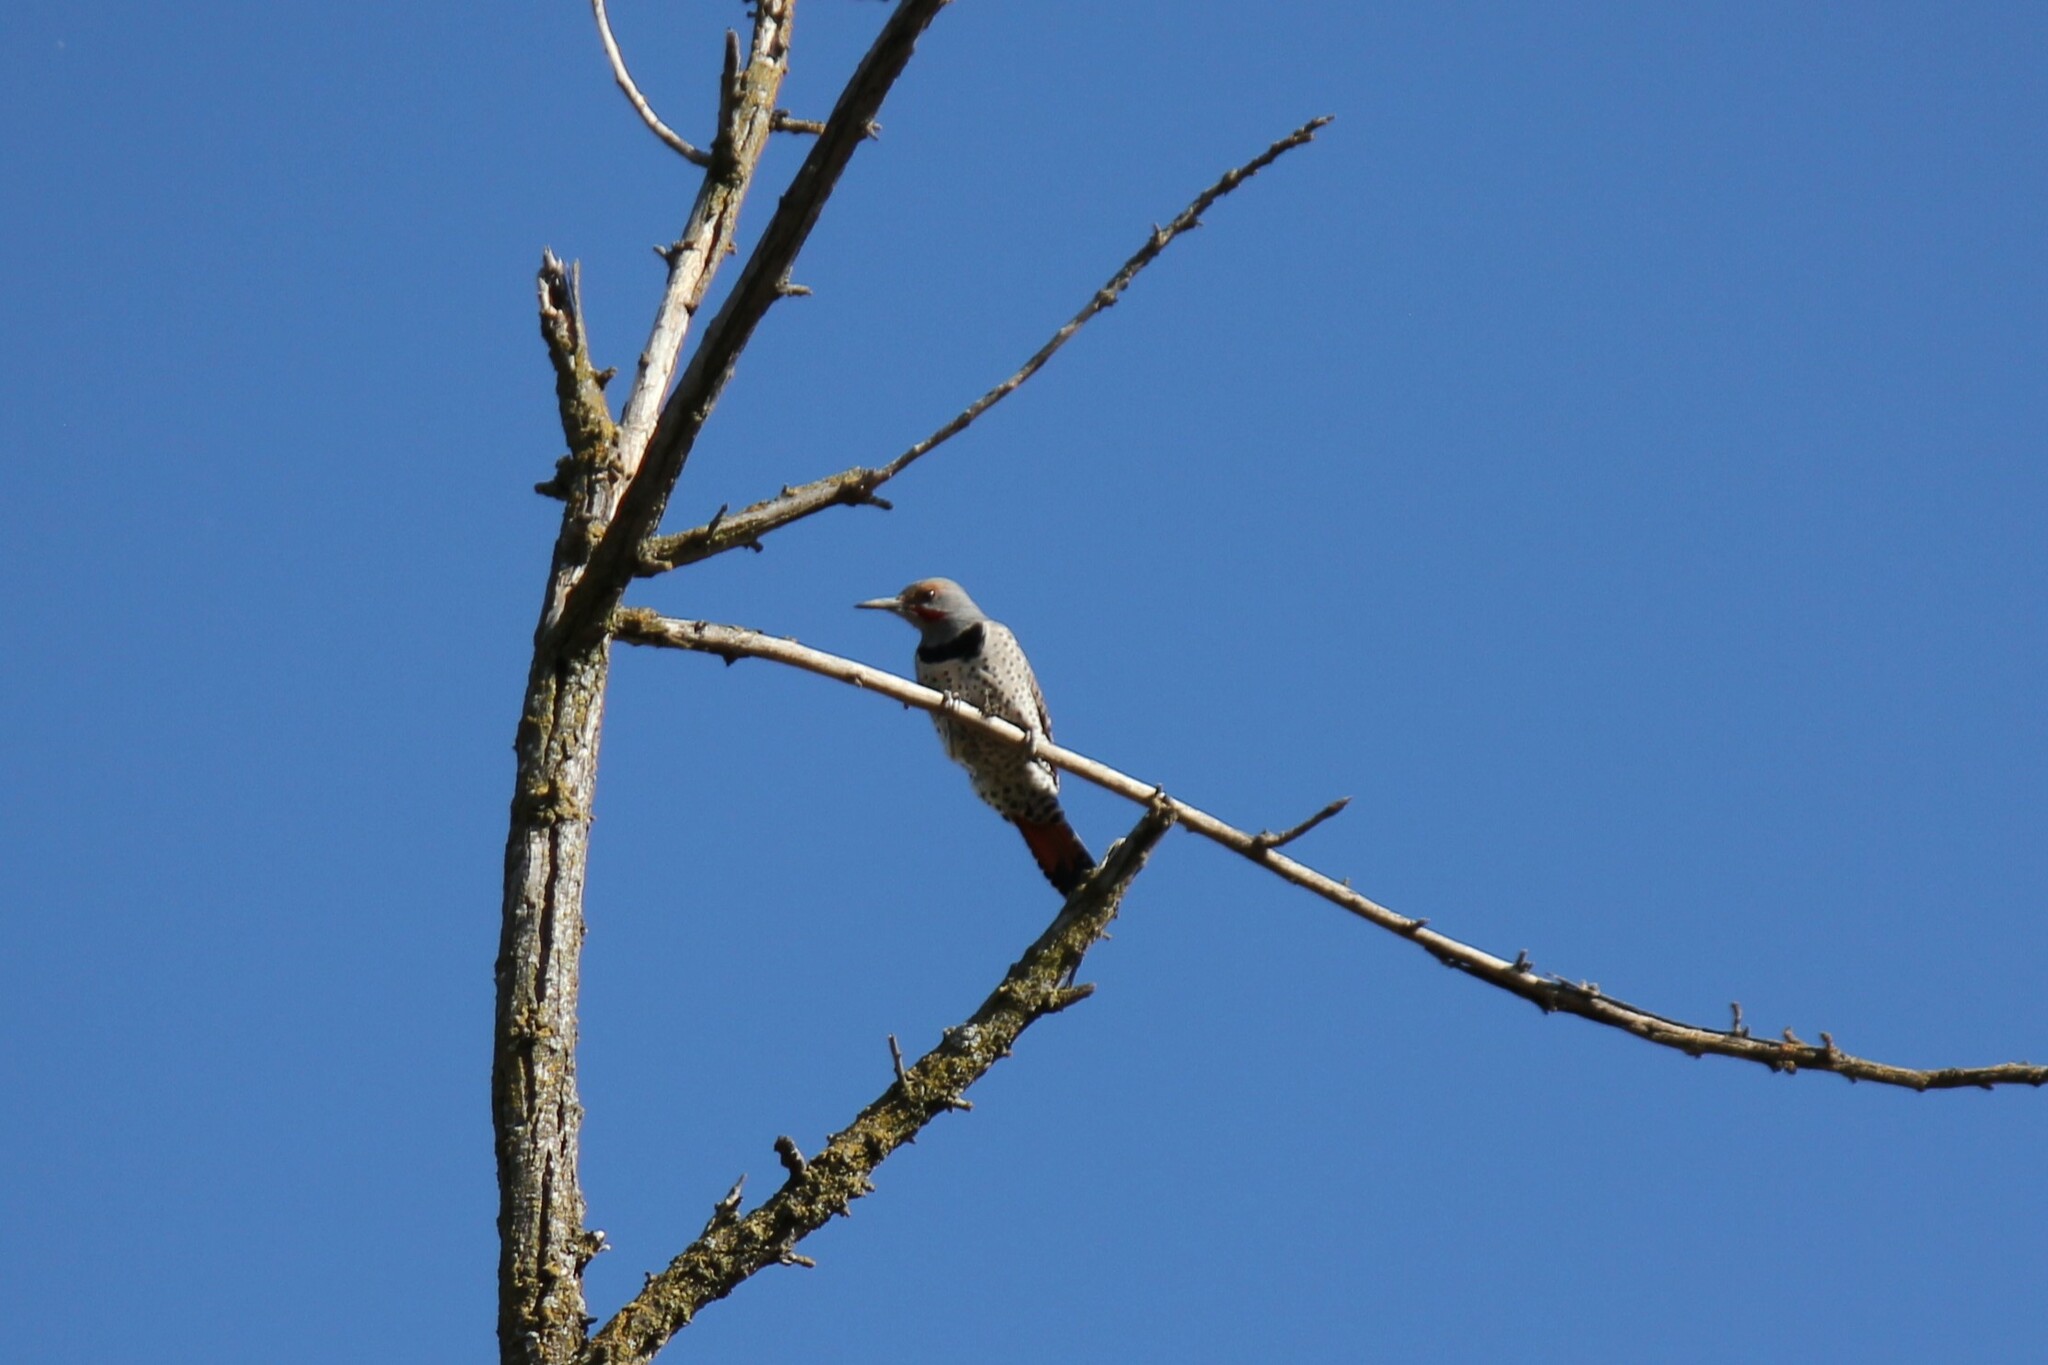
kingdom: Animalia
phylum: Chordata
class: Aves
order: Piciformes
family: Picidae
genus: Colaptes
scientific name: Colaptes auratus
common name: Northern flicker
